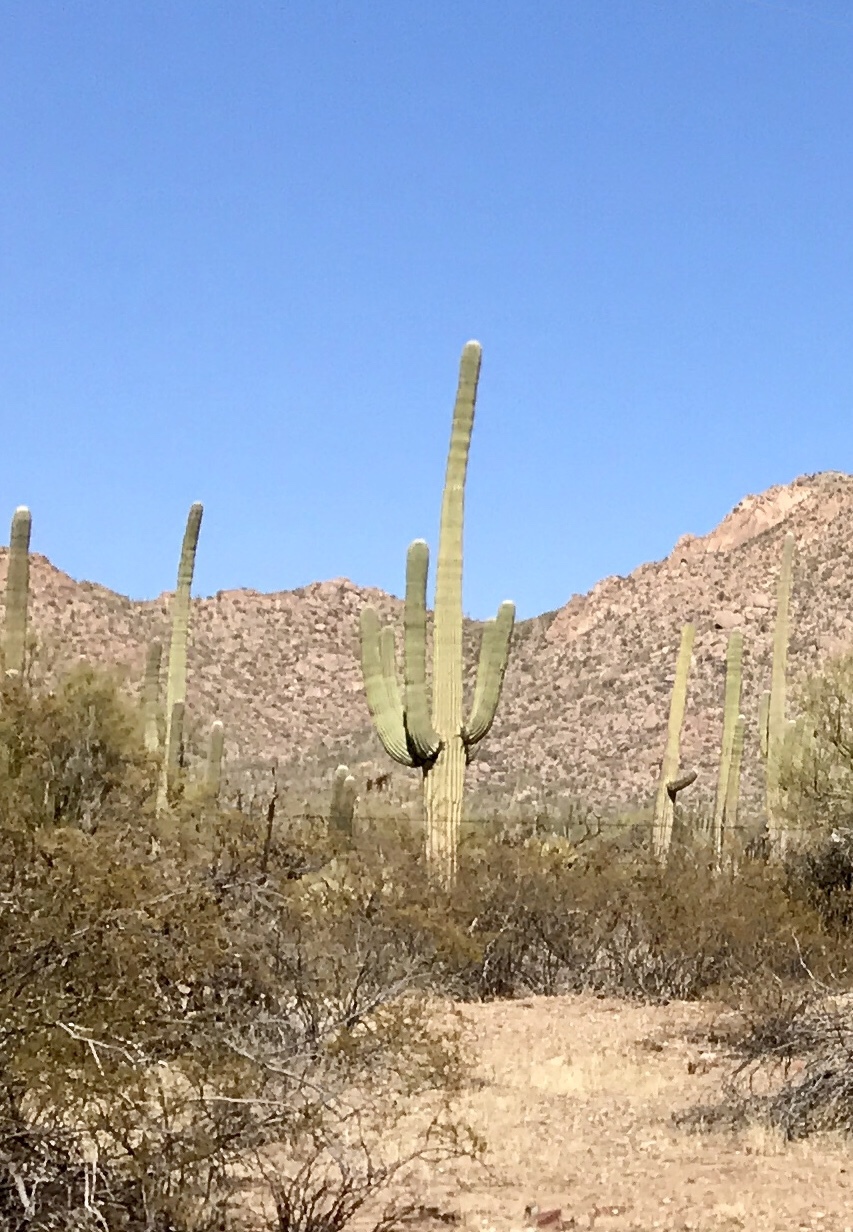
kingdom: Plantae
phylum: Tracheophyta
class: Magnoliopsida
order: Caryophyllales
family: Cactaceae
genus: Carnegiea
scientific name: Carnegiea gigantea
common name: Saguaro
